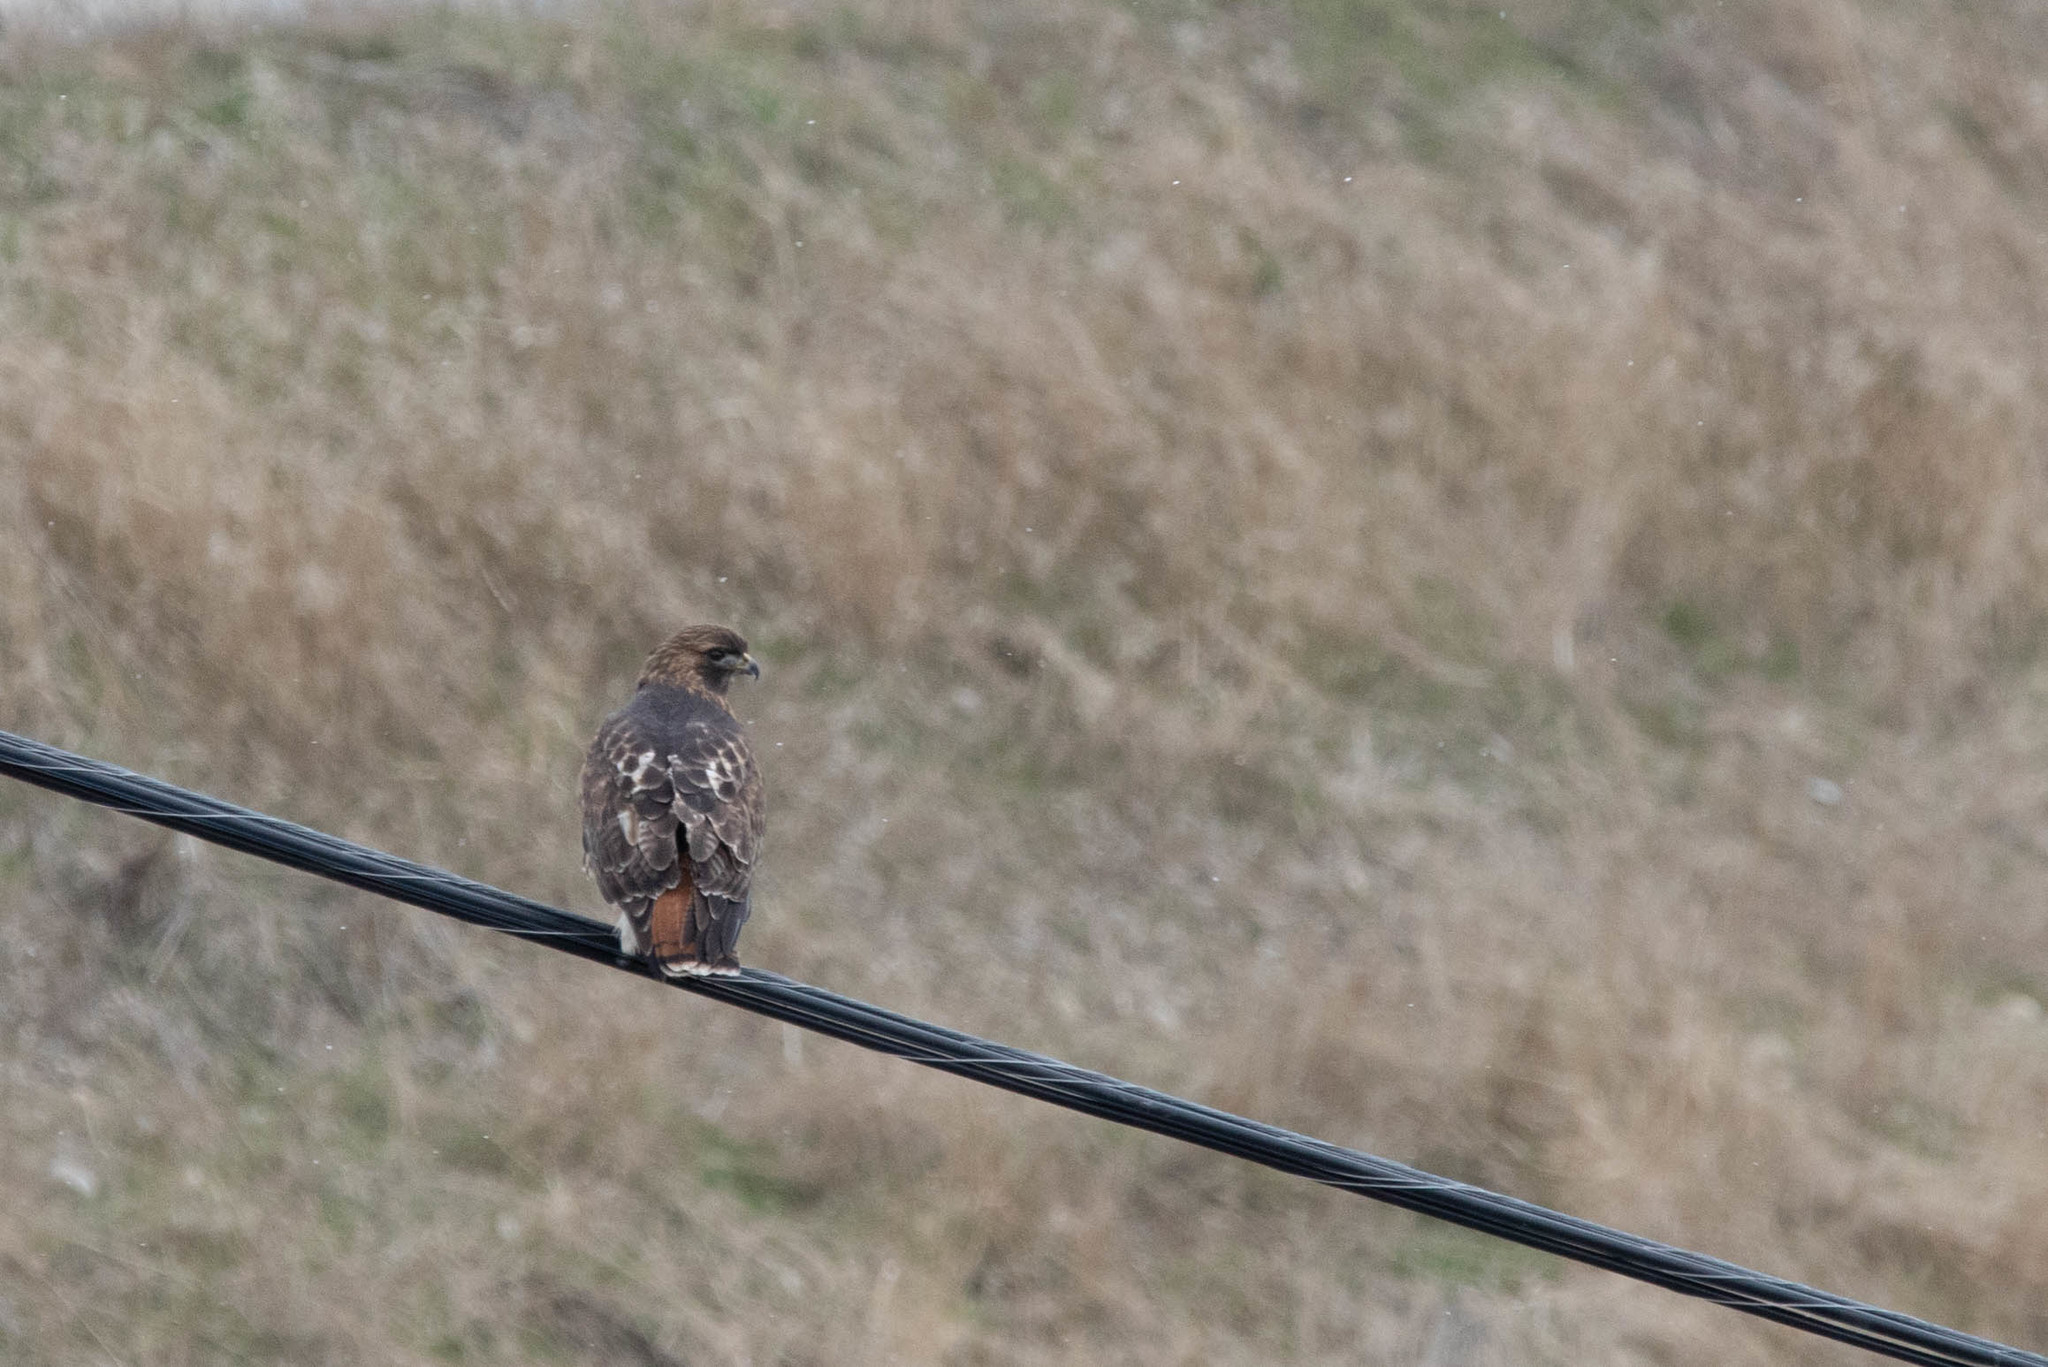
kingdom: Animalia
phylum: Chordata
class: Aves
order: Accipitriformes
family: Accipitridae
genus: Buteo
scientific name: Buteo jamaicensis
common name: Red-tailed hawk
